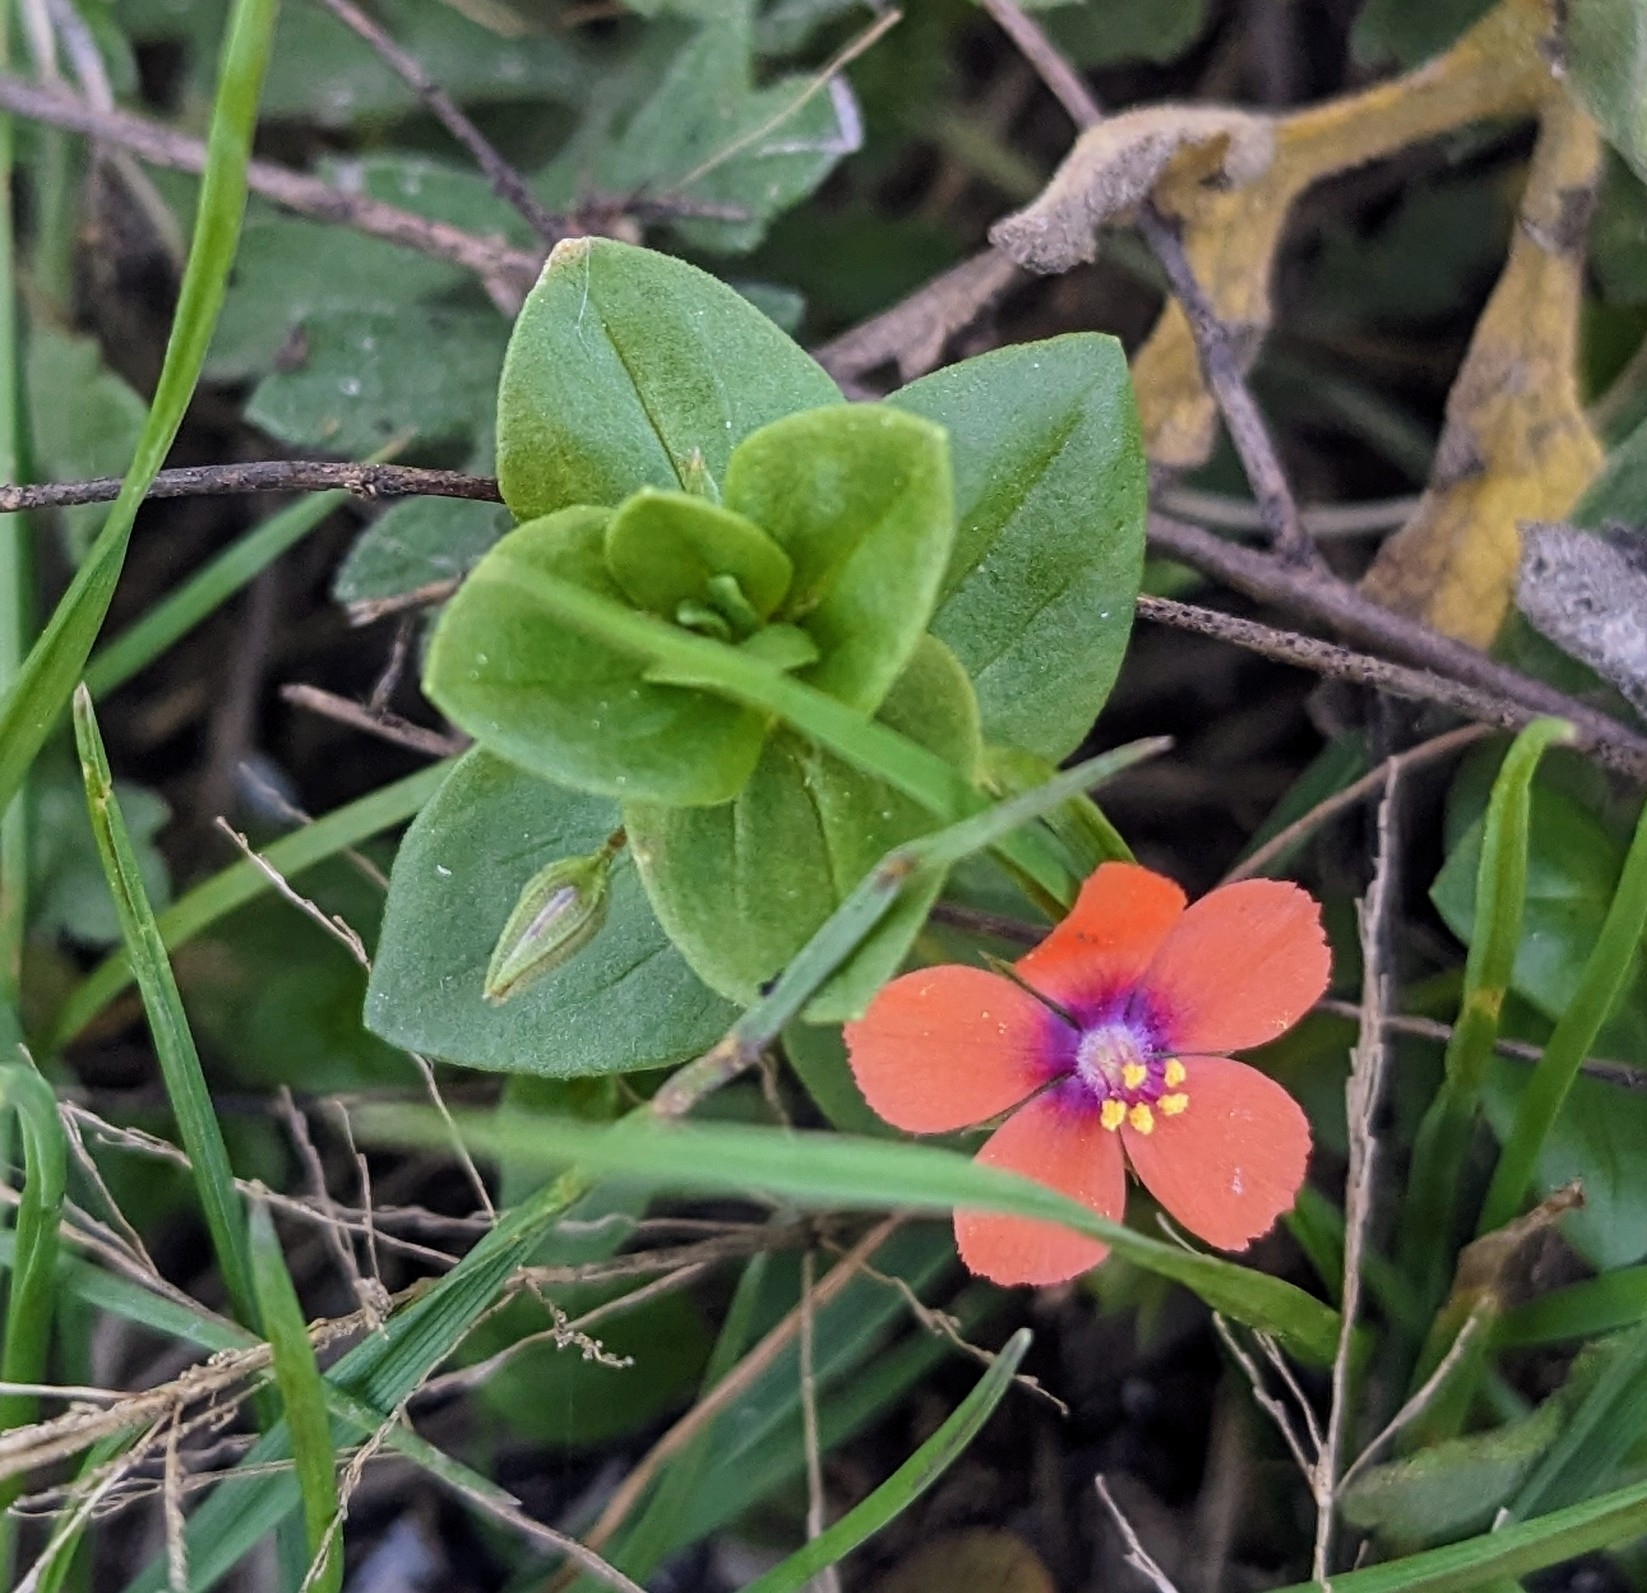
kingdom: Plantae
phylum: Tracheophyta
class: Magnoliopsida
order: Ericales
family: Primulaceae
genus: Lysimachia
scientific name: Lysimachia arvensis
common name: Scarlet pimpernel
